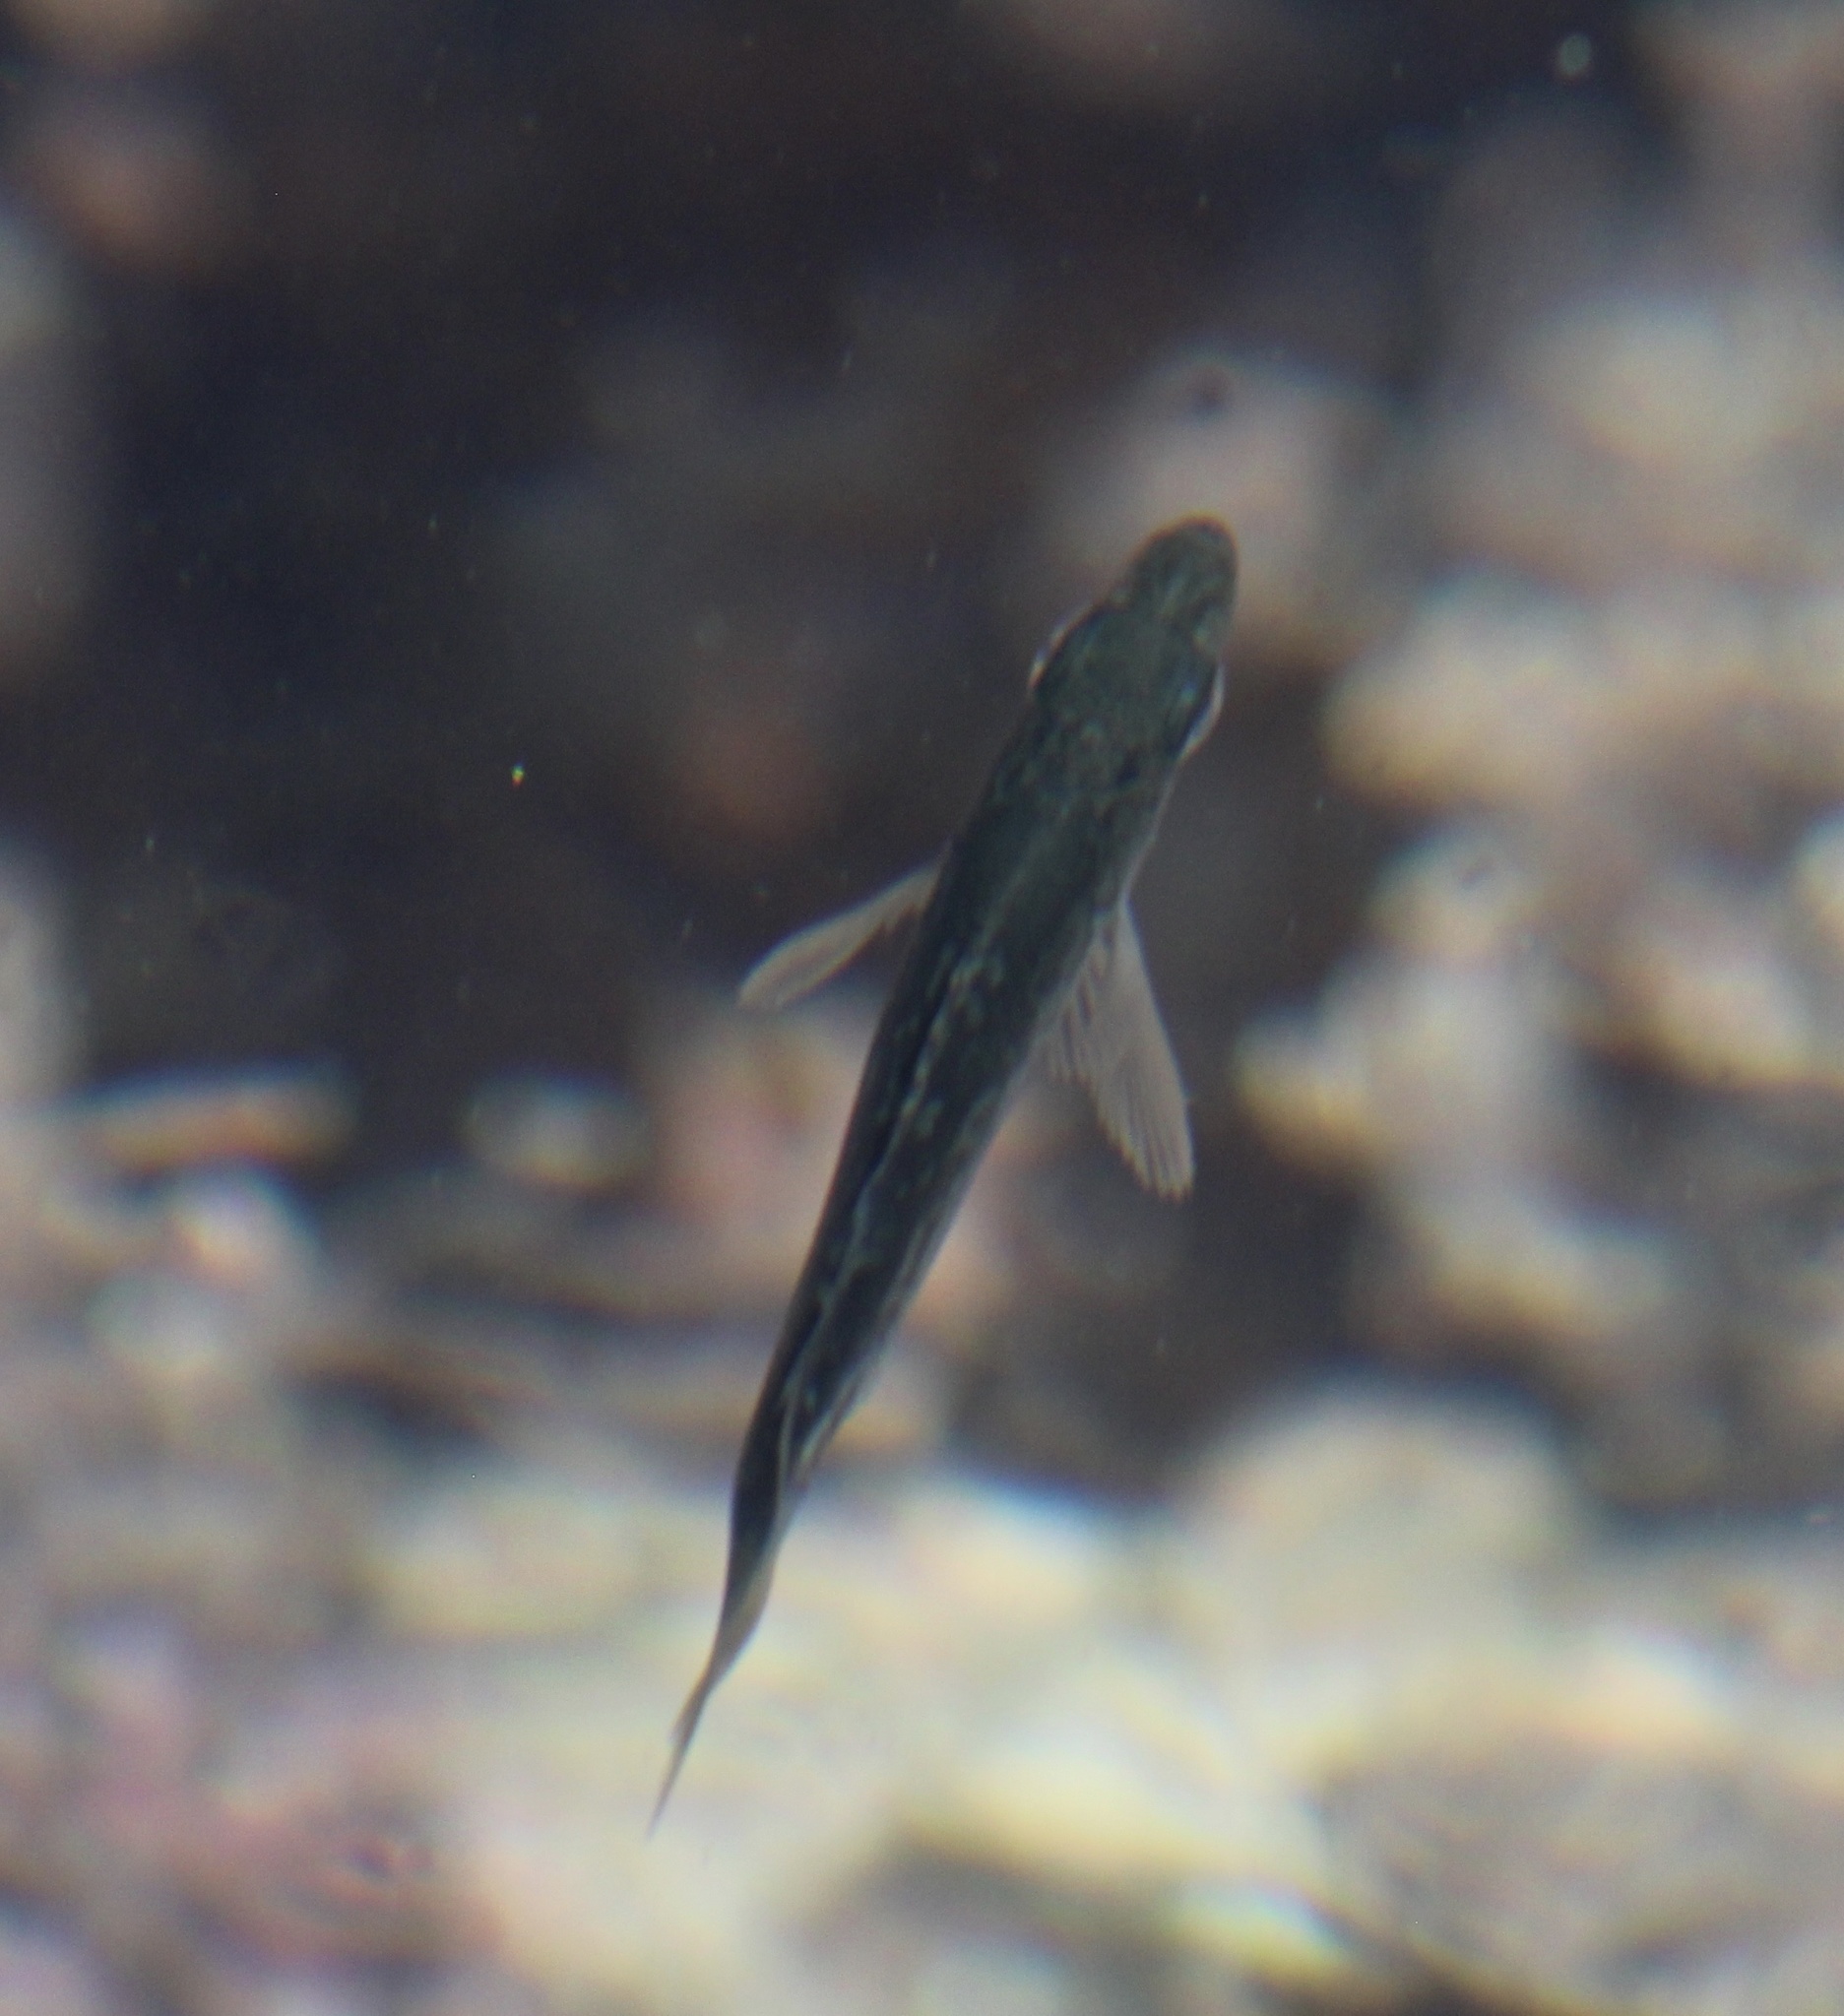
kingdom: Animalia
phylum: Chordata
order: Perciformes
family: Embiotocidae
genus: Micrometrus
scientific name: Micrometrus minimus
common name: Dwarf perch
